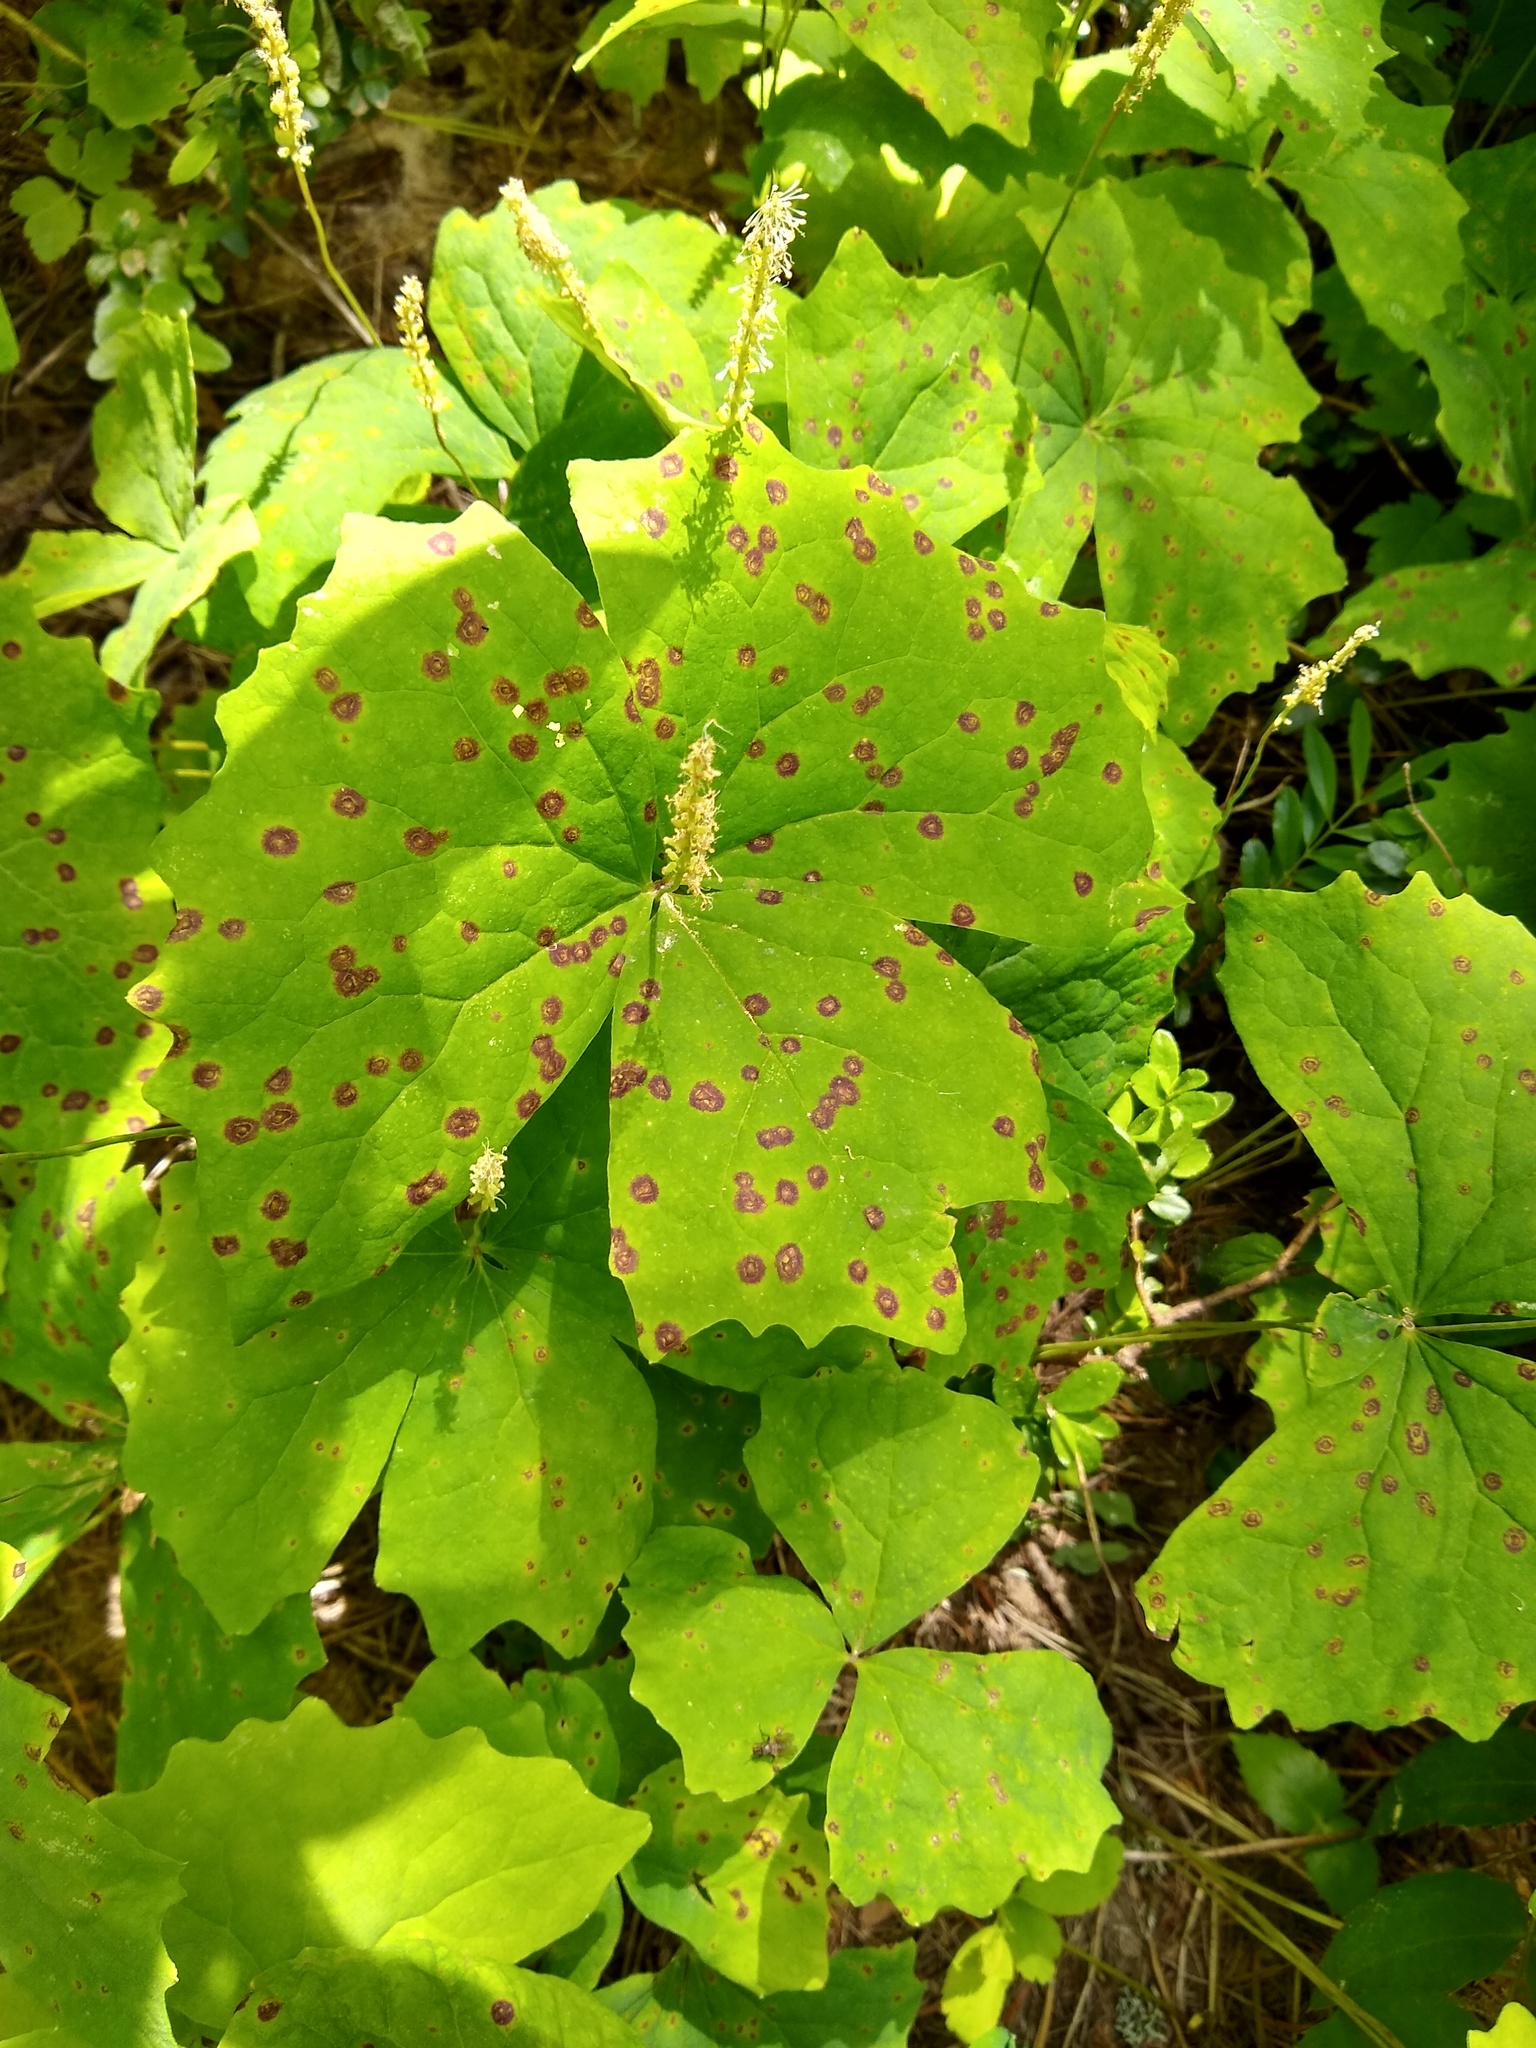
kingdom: Fungi
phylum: Ascomycota
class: Dothideomycetes
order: Pleosporales
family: Didymellaceae
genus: Ascochyta
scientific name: Ascochyta
